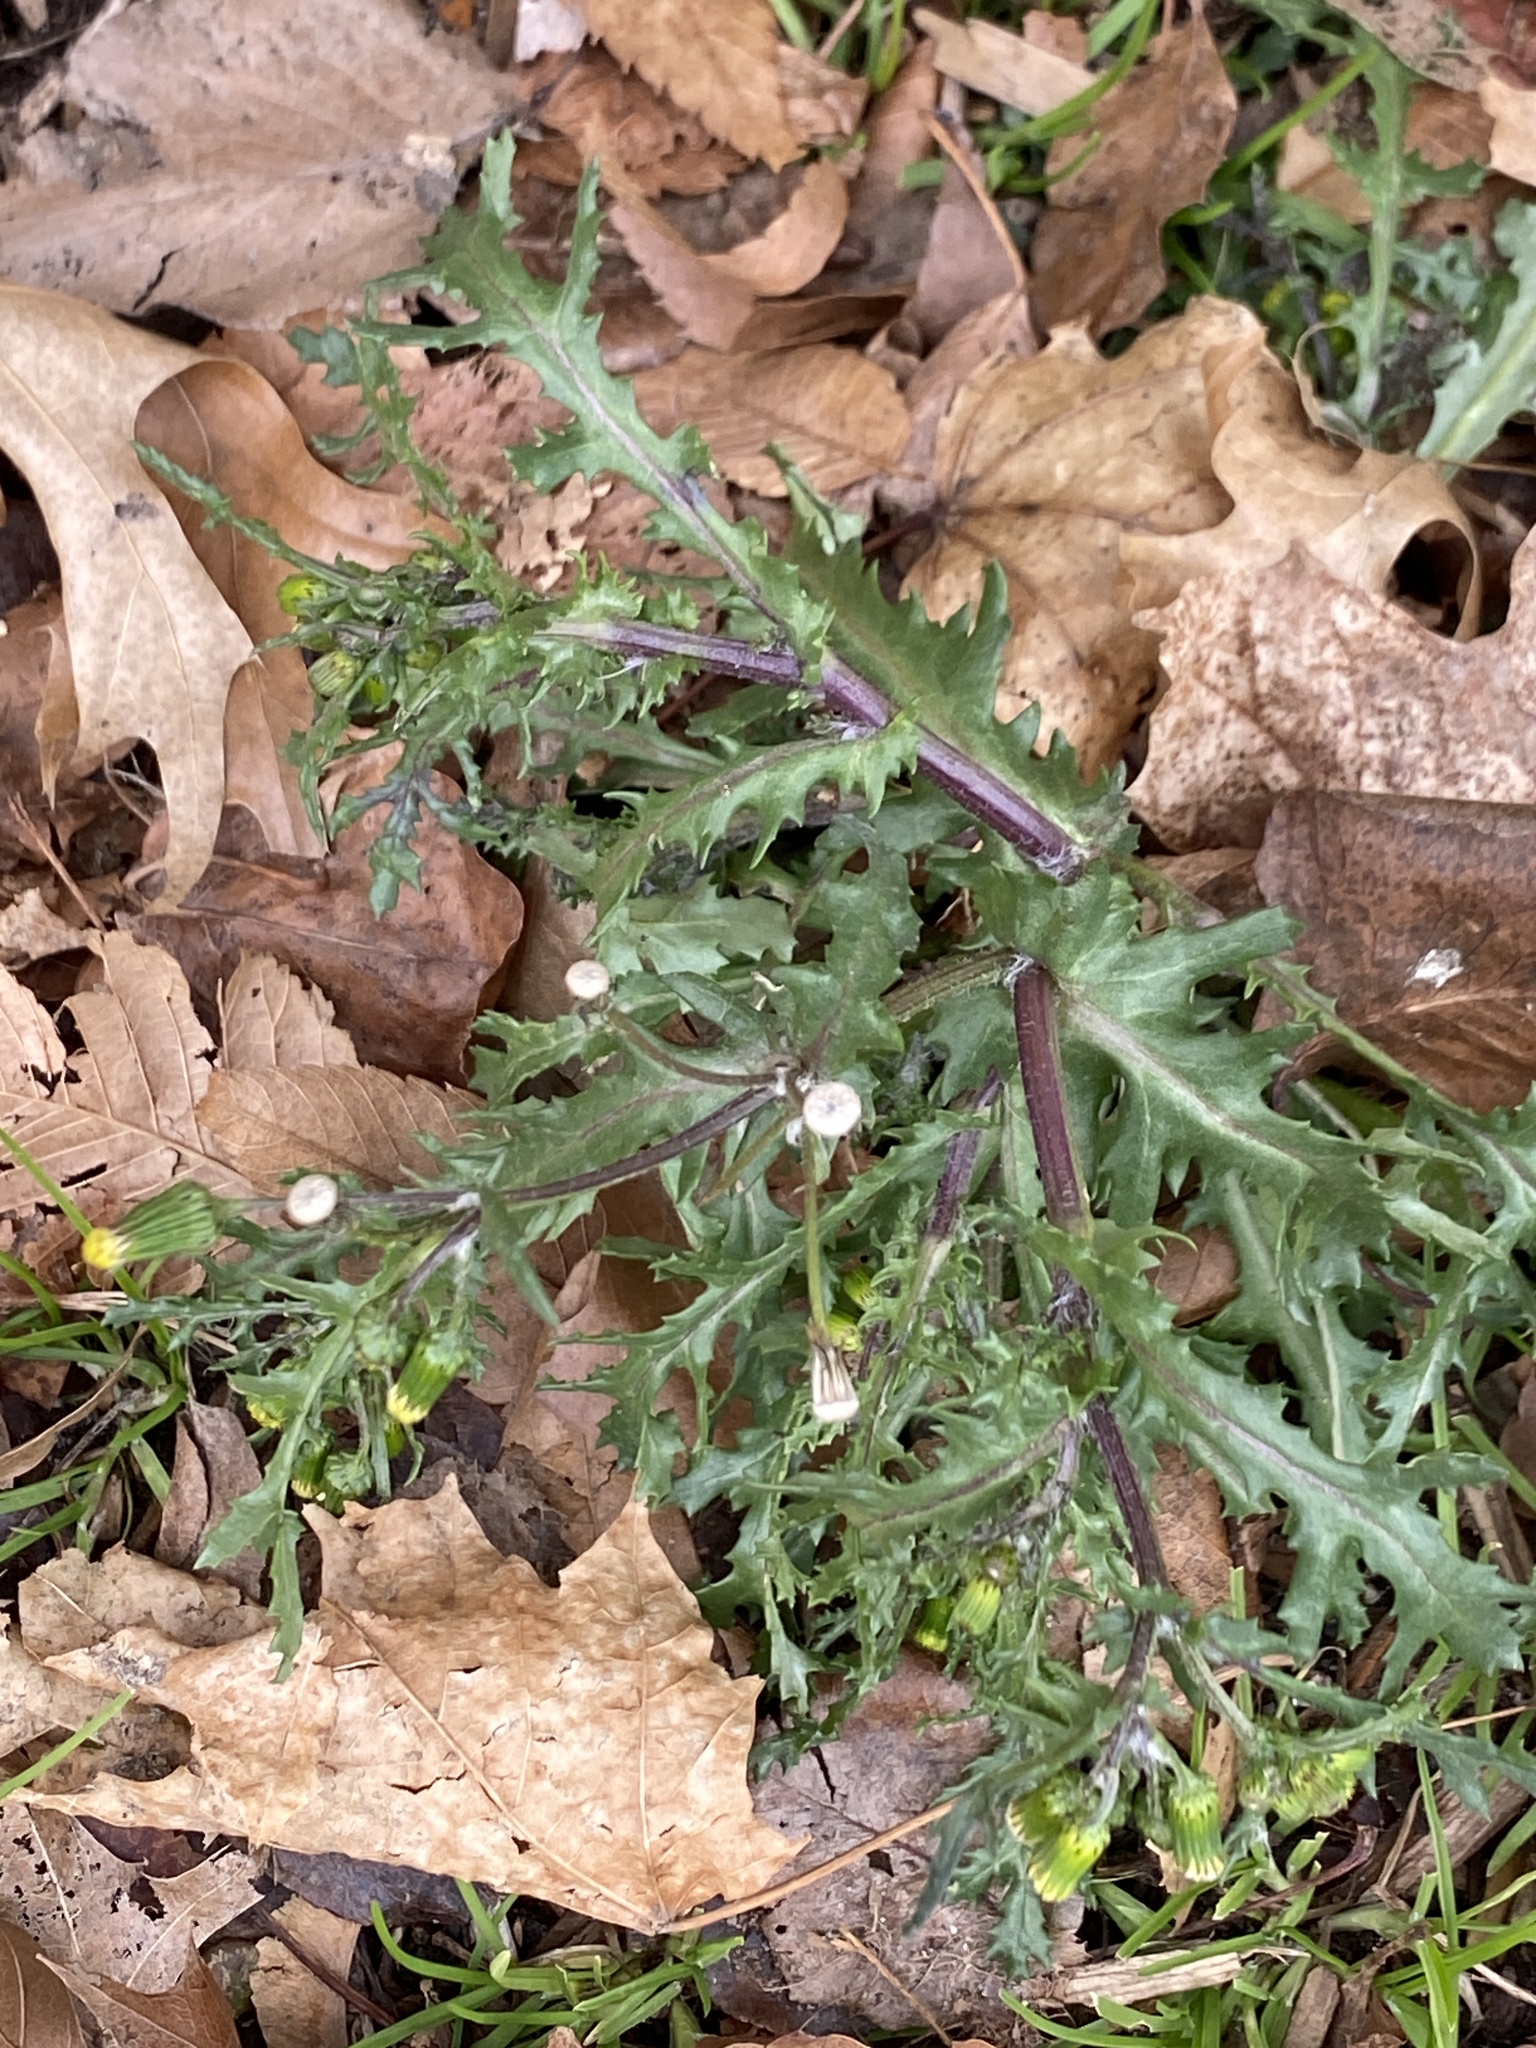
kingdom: Plantae
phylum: Tracheophyta
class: Magnoliopsida
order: Asterales
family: Asteraceae
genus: Senecio
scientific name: Senecio vulgaris
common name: Old-man-in-the-spring
